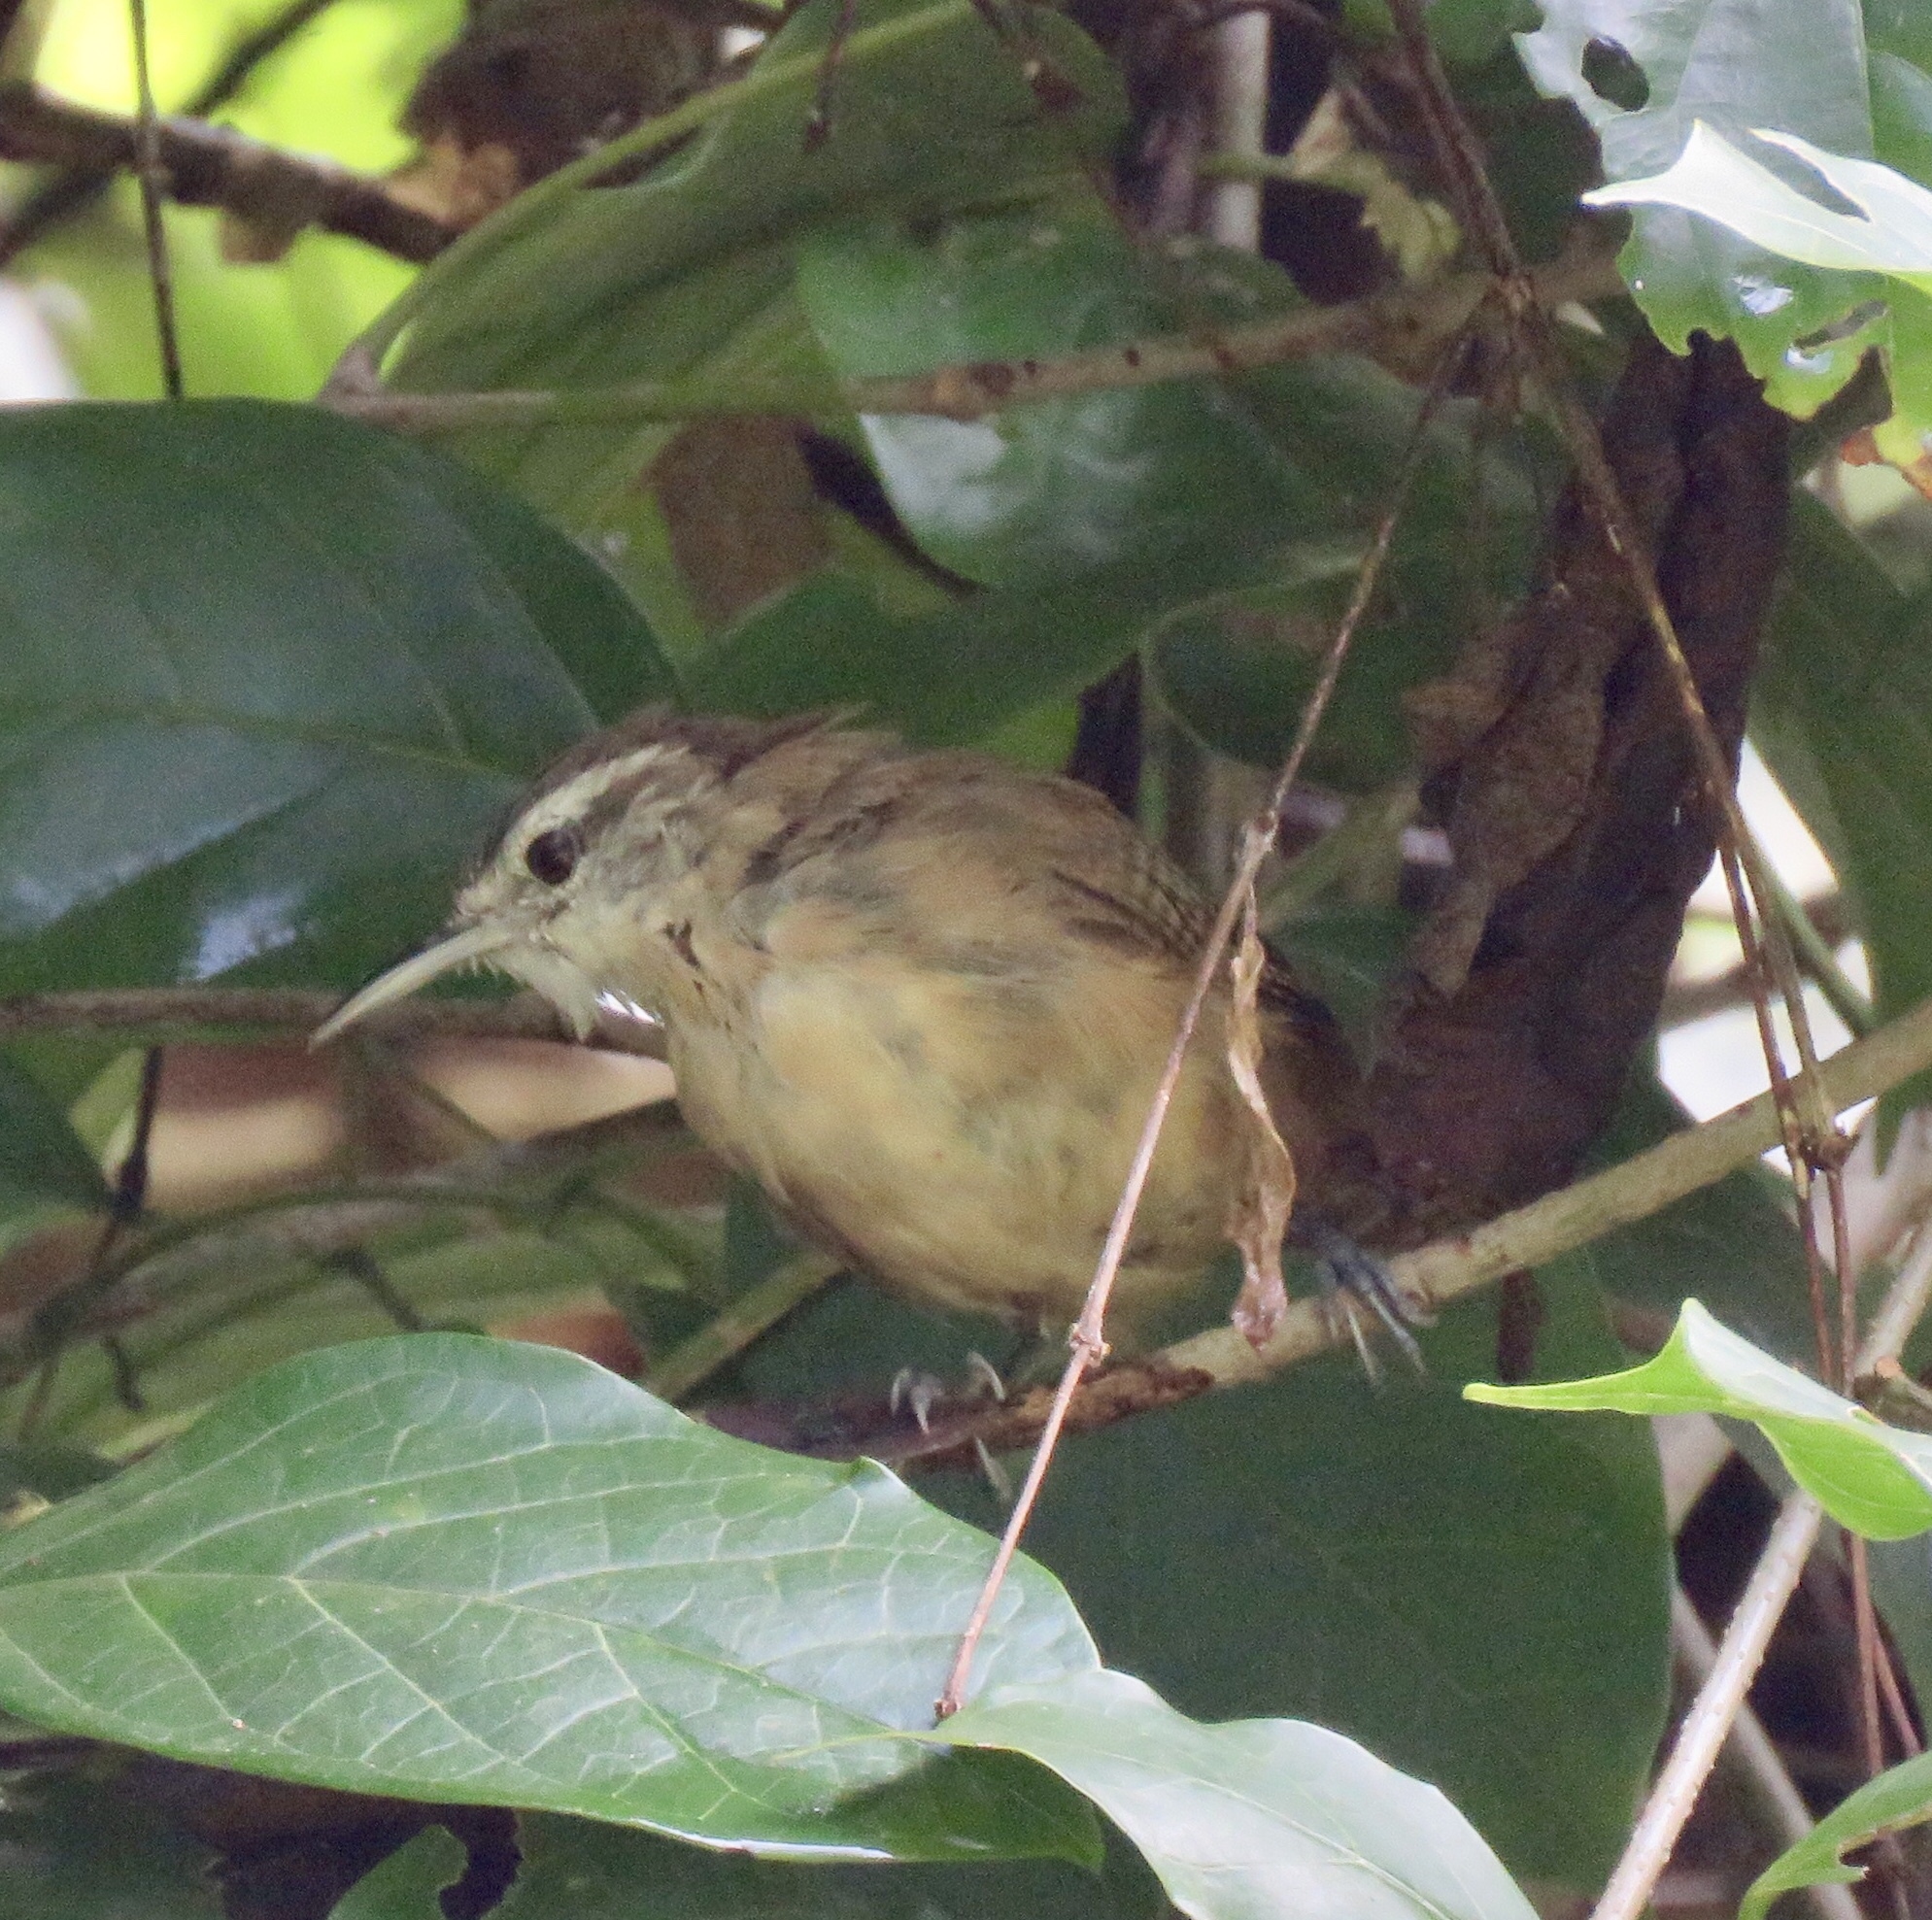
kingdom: Animalia
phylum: Chordata
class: Aves
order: Passeriformes
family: Troglodytidae
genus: Cantorchilus
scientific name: Cantorchilus modestus
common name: Cabanis's wren
